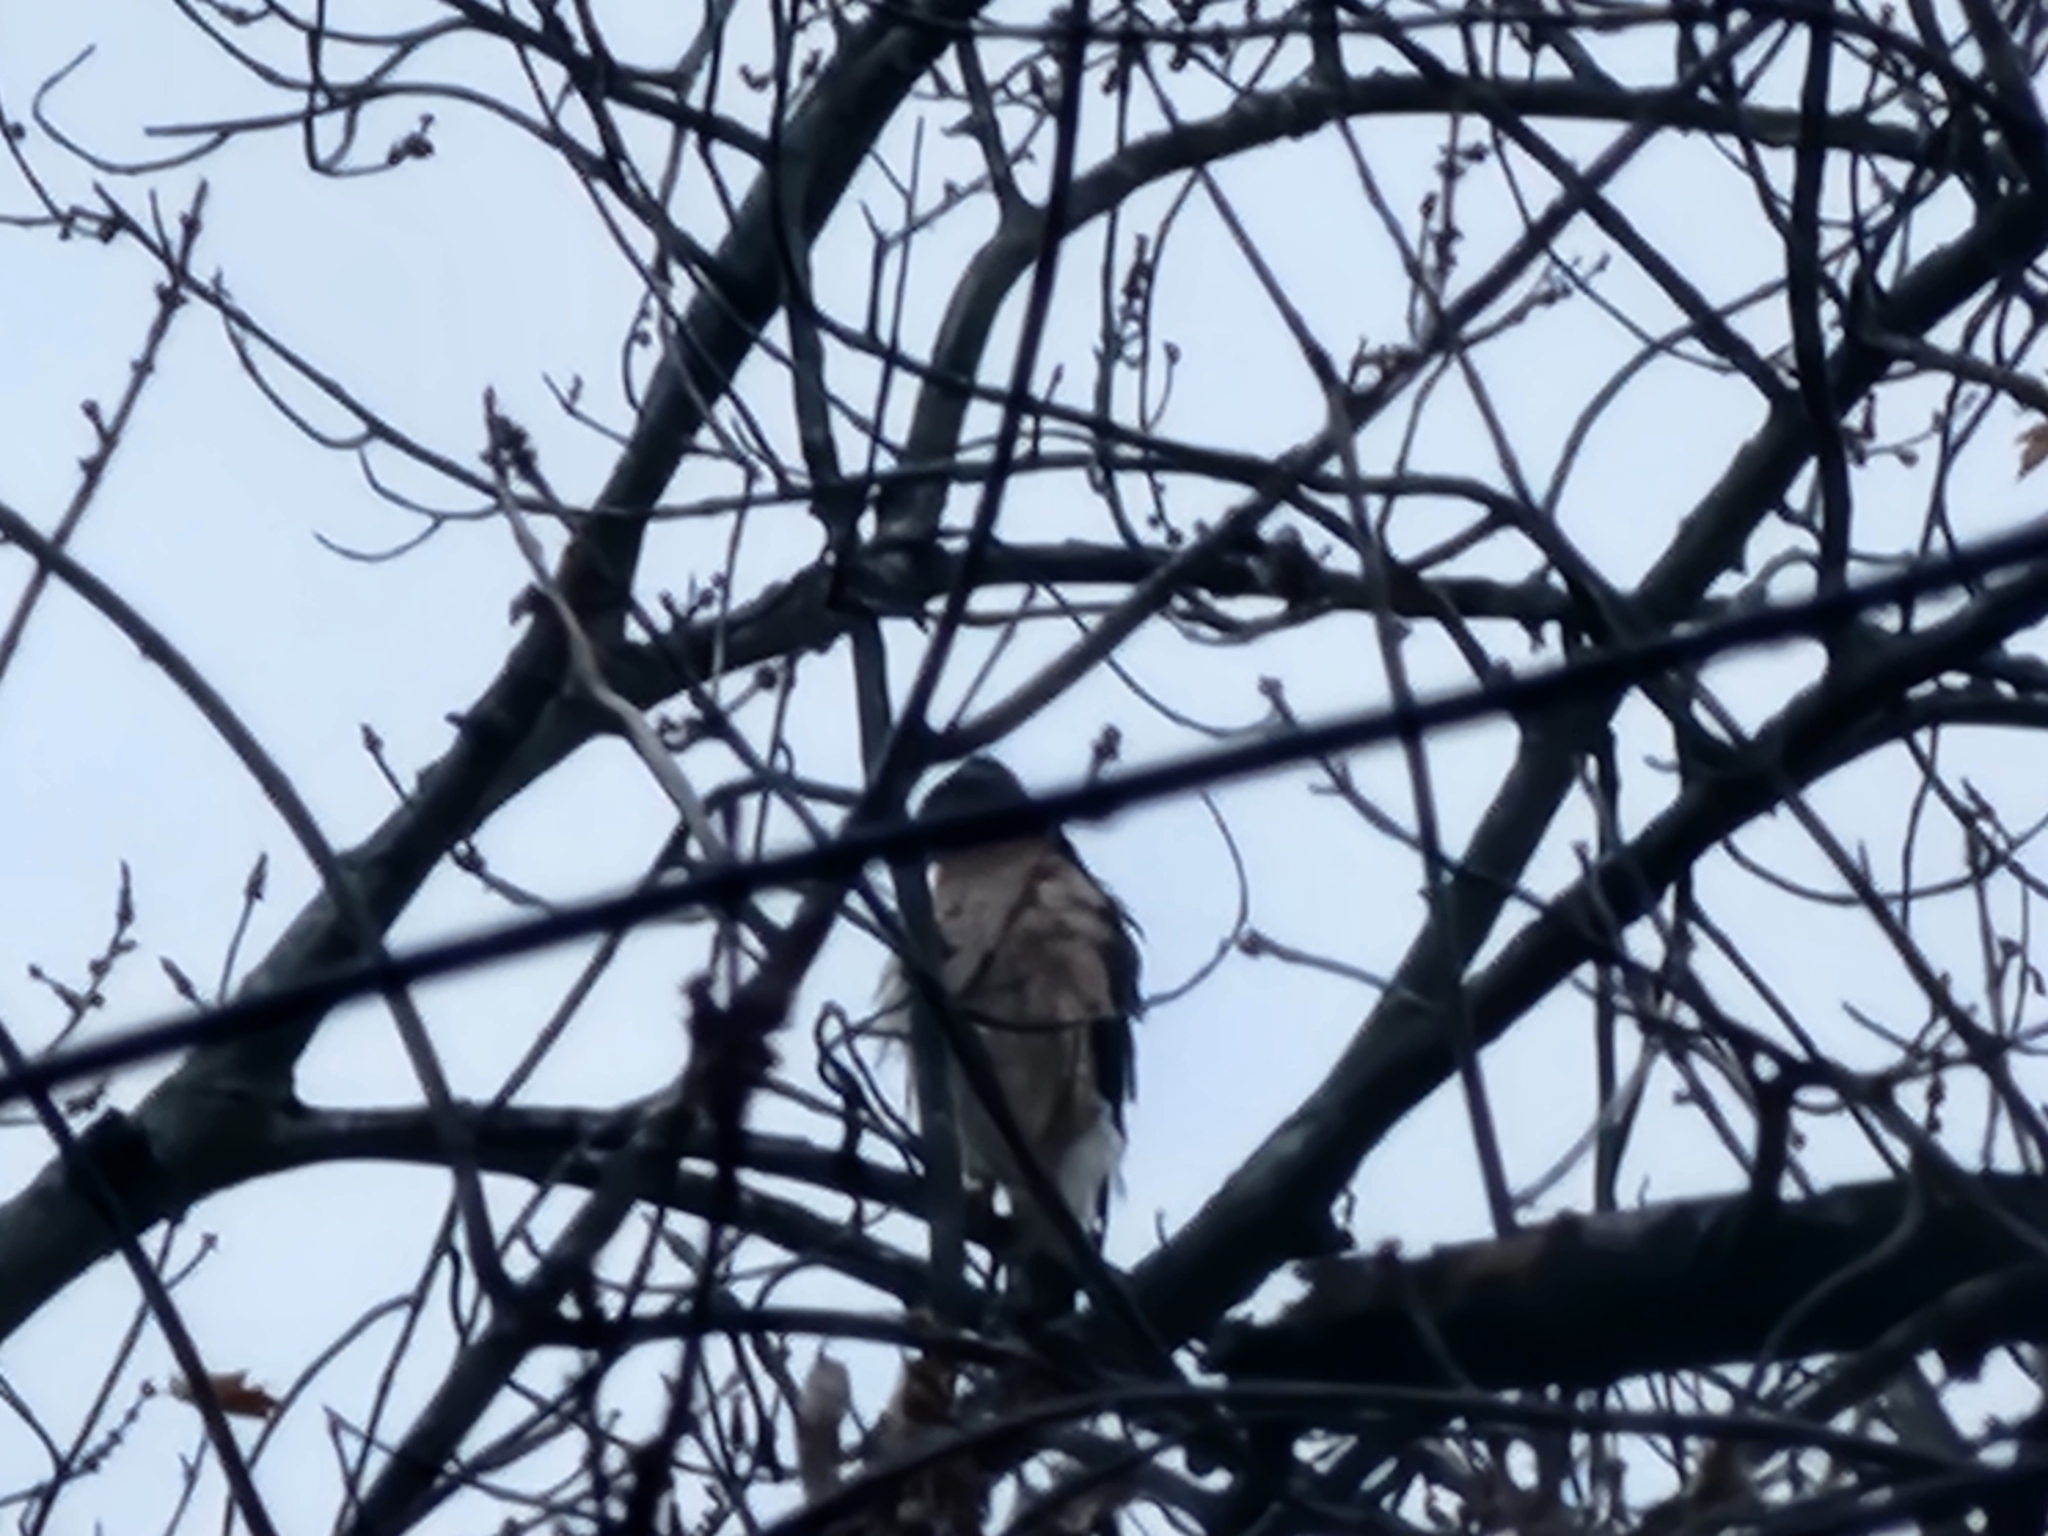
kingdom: Animalia
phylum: Chordata
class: Aves
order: Accipitriformes
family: Accipitridae
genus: Accipiter
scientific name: Accipiter cooperii
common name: Cooper's hawk
